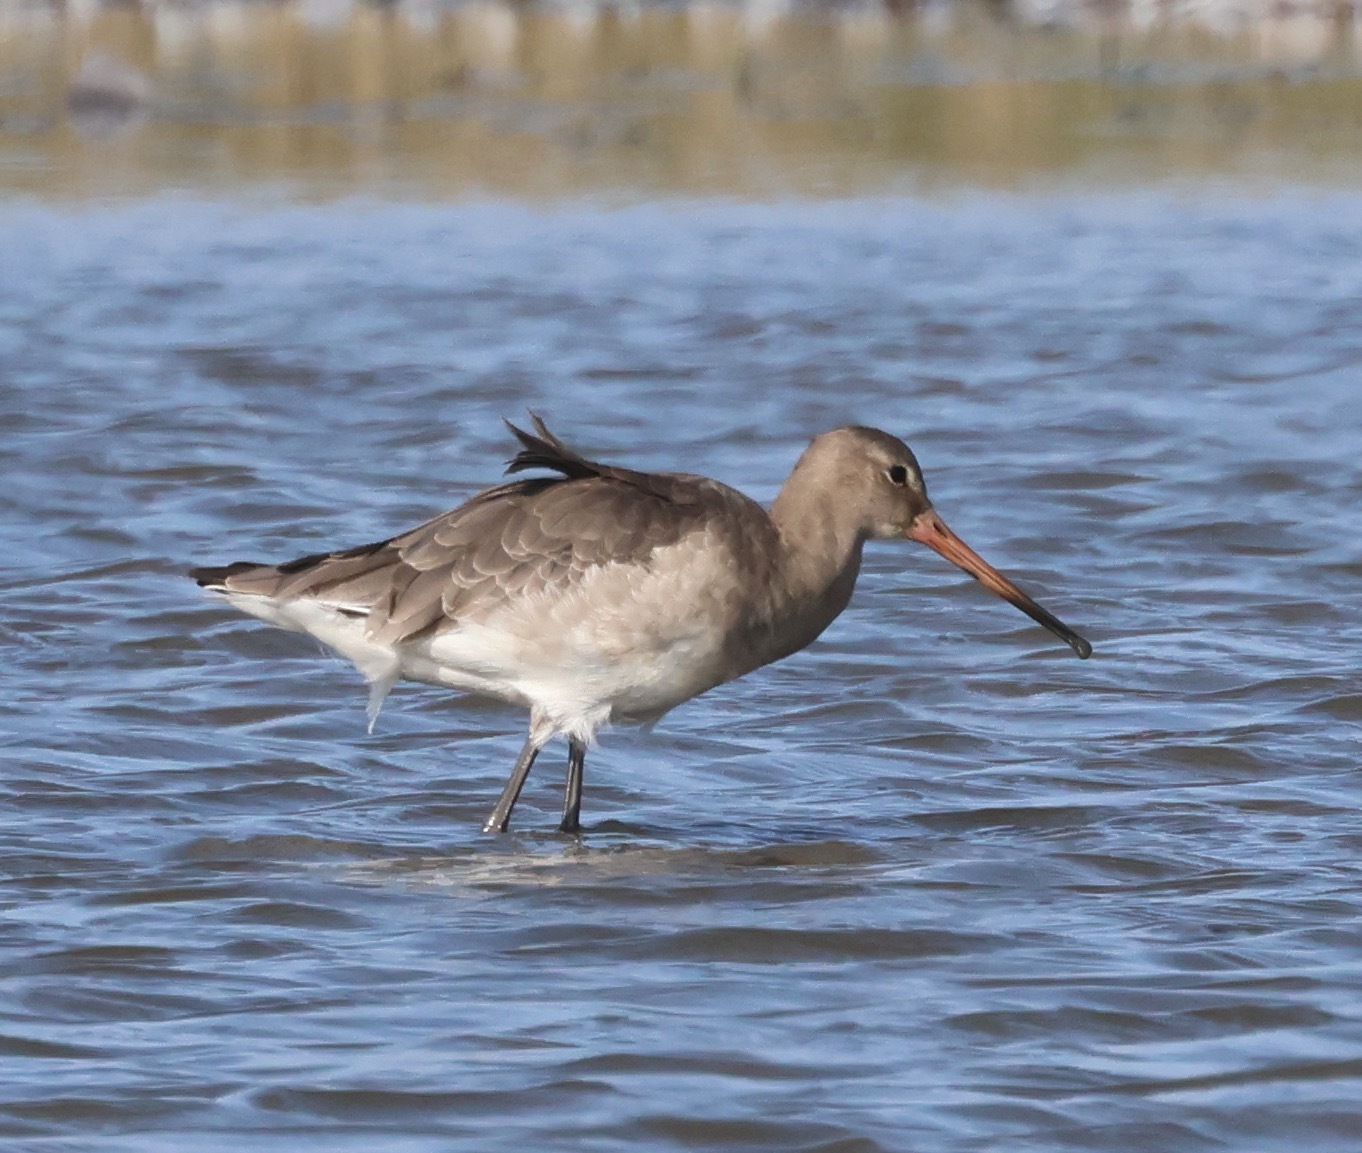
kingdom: Animalia
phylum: Chordata
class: Aves
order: Charadriiformes
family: Scolopacidae
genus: Limosa
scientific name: Limosa limosa
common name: Black-tailed godwit
